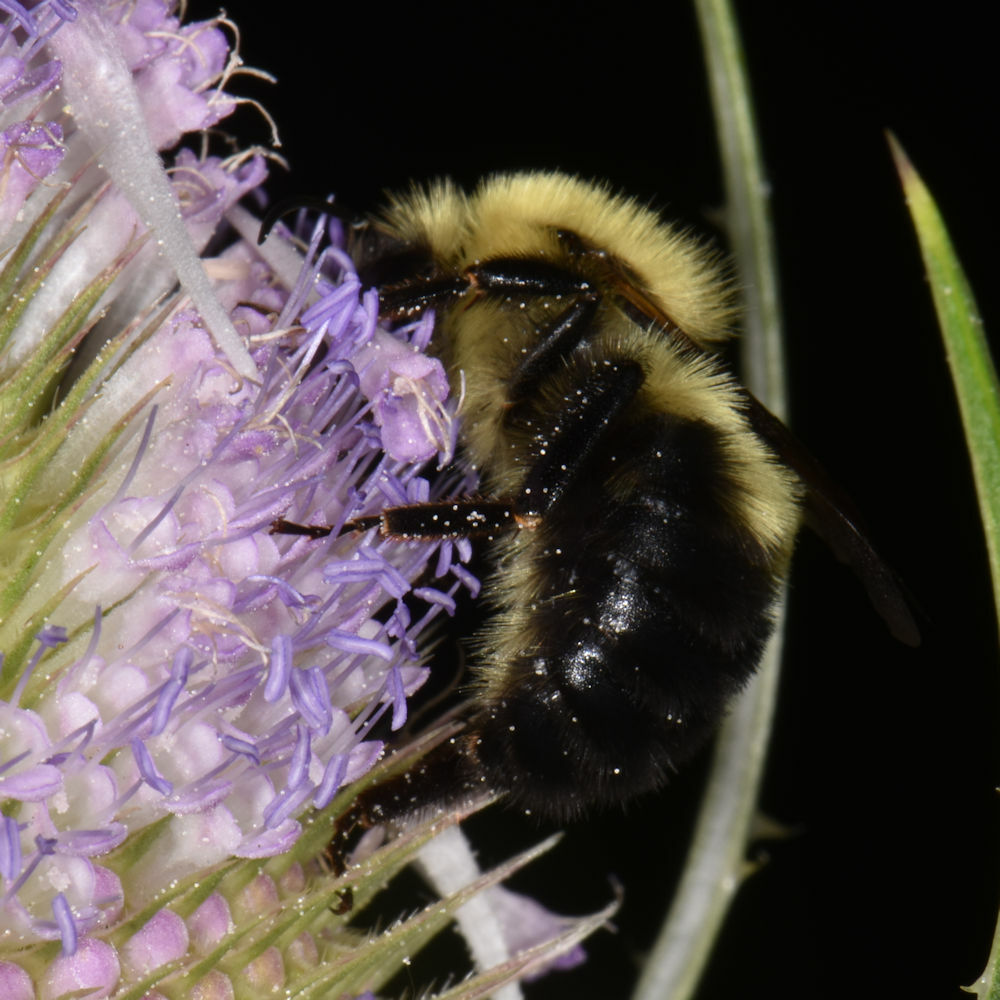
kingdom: Animalia
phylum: Arthropoda
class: Insecta
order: Hymenoptera
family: Apidae
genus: Bombus
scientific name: Bombus bimaculatus
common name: Two-spotted bumble bee
